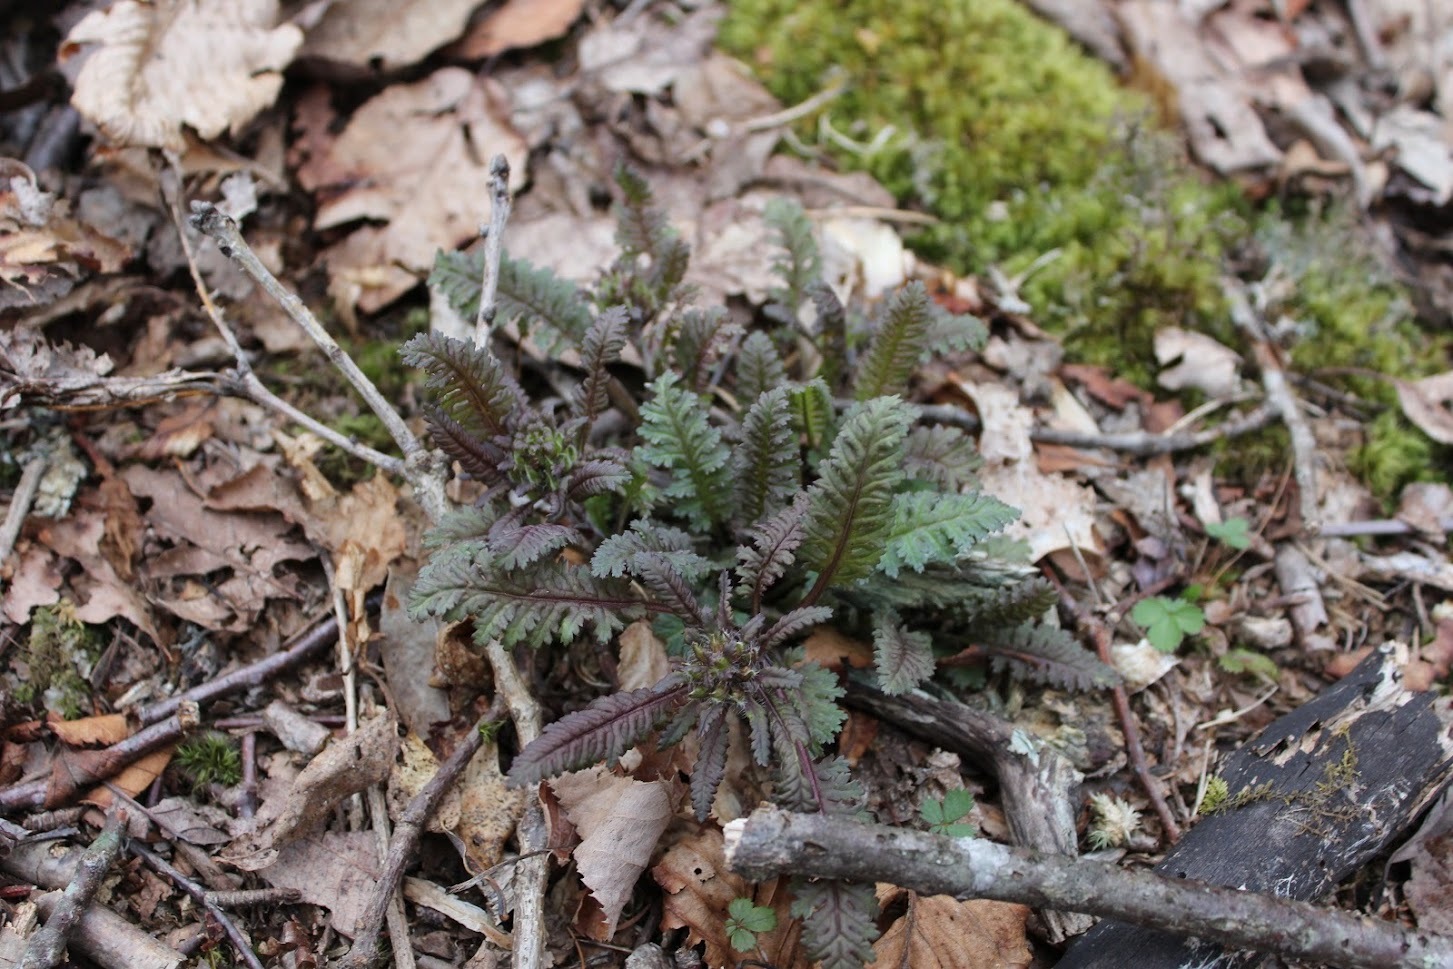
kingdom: Plantae
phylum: Tracheophyta
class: Magnoliopsida
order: Lamiales
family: Orobanchaceae
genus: Pedicularis
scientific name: Pedicularis canadensis
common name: Early lousewort
